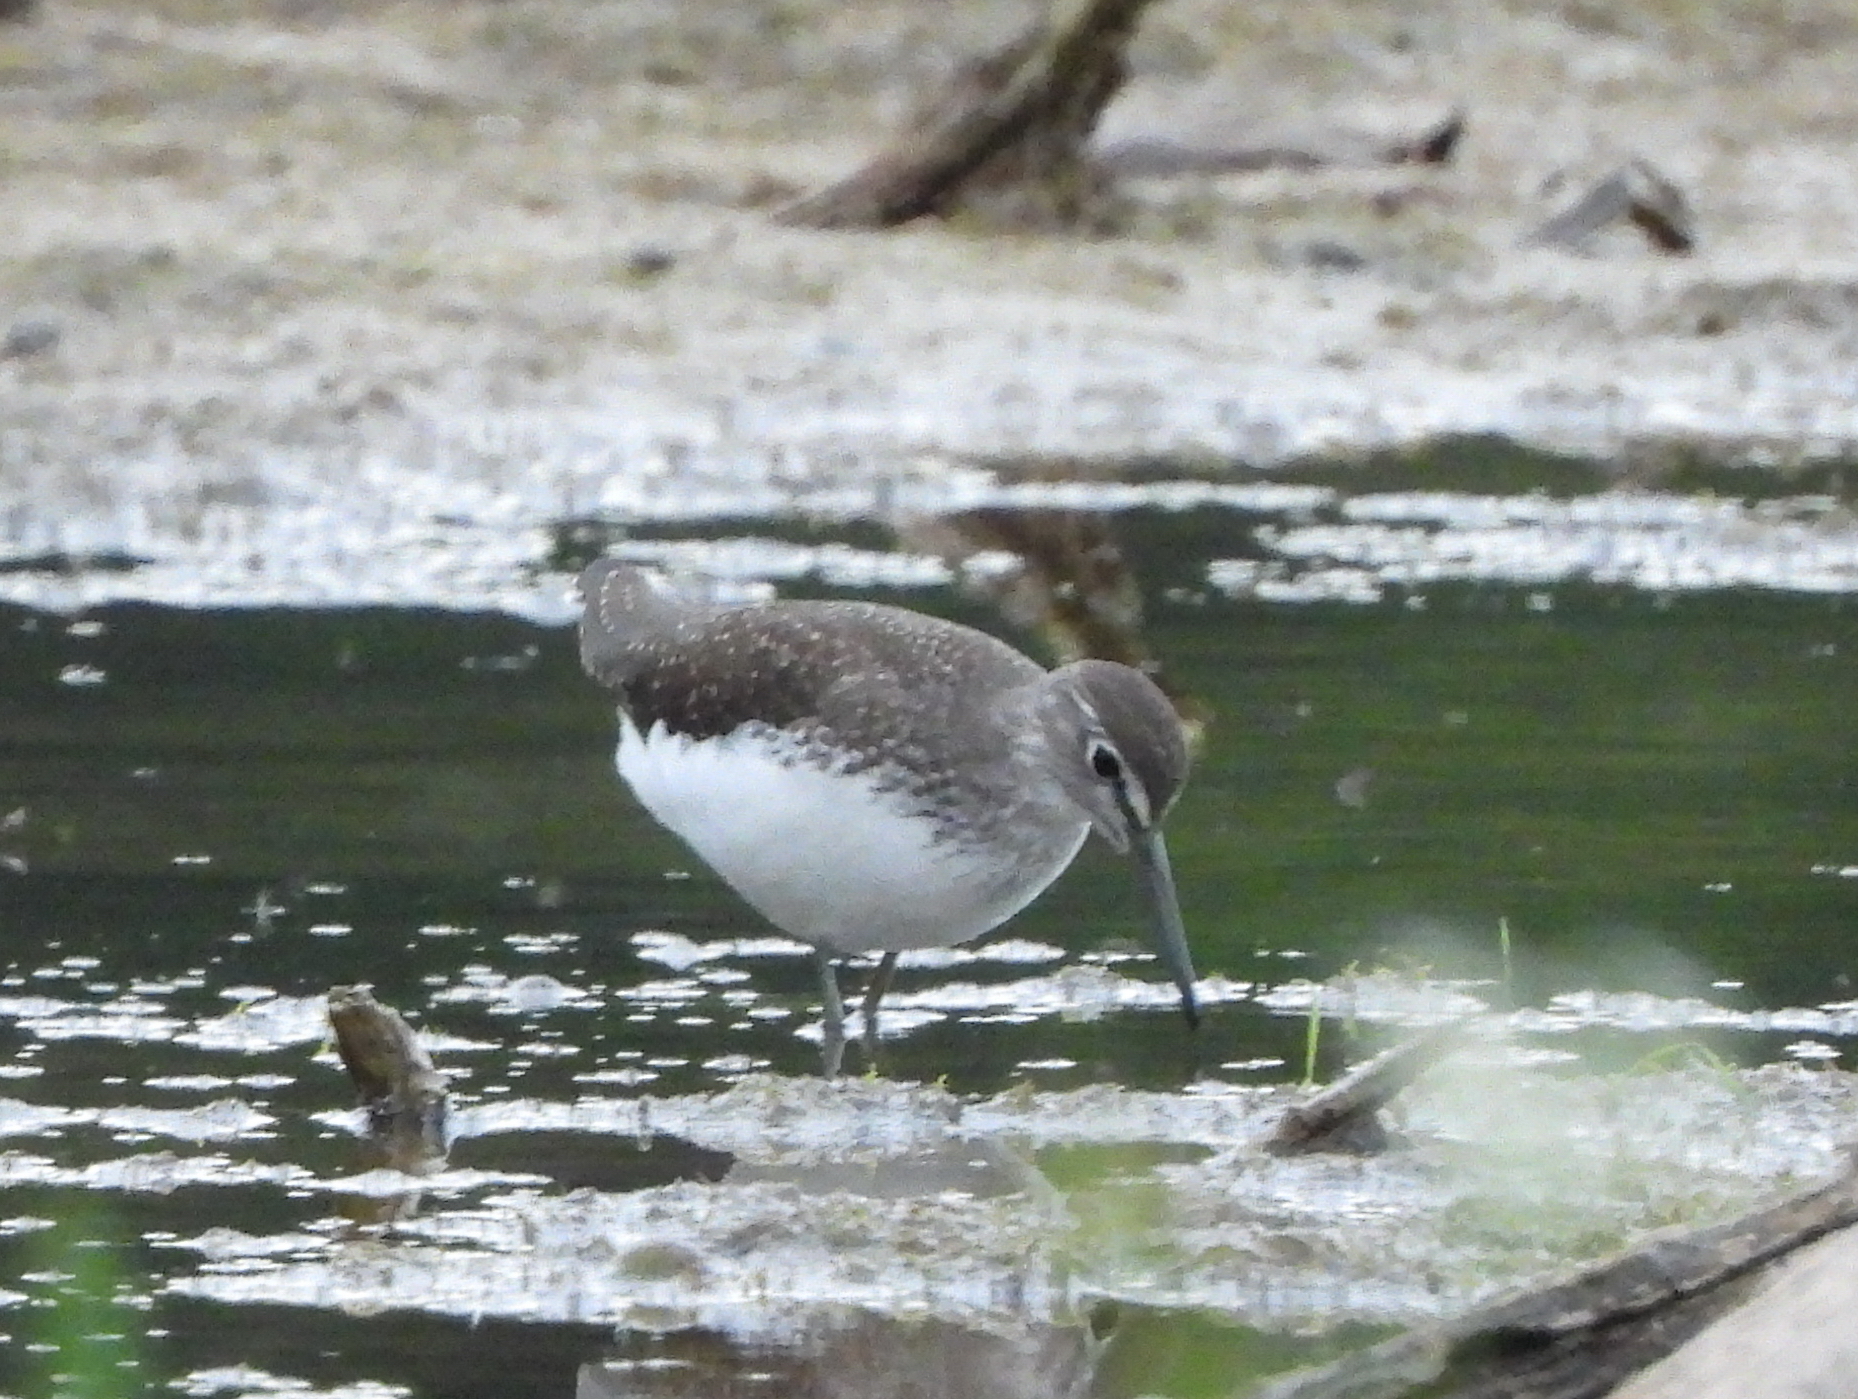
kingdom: Animalia
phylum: Chordata
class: Aves
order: Charadriiformes
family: Scolopacidae
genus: Tringa
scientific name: Tringa ochropus
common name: Green sandpiper
